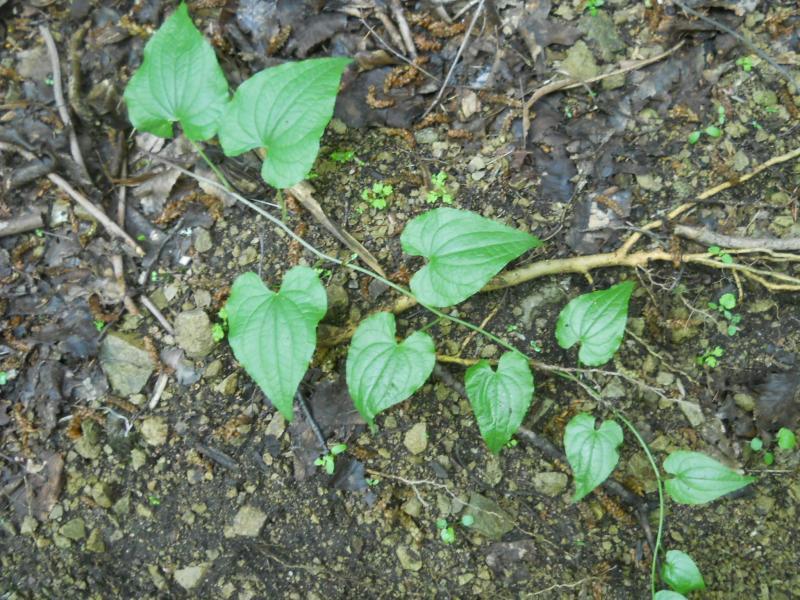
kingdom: Plantae
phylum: Tracheophyta
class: Liliopsida
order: Dioscoreales
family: Dioscoreaceae
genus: Dioscorea
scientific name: Dioscorea communis
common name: Black-bindweed
